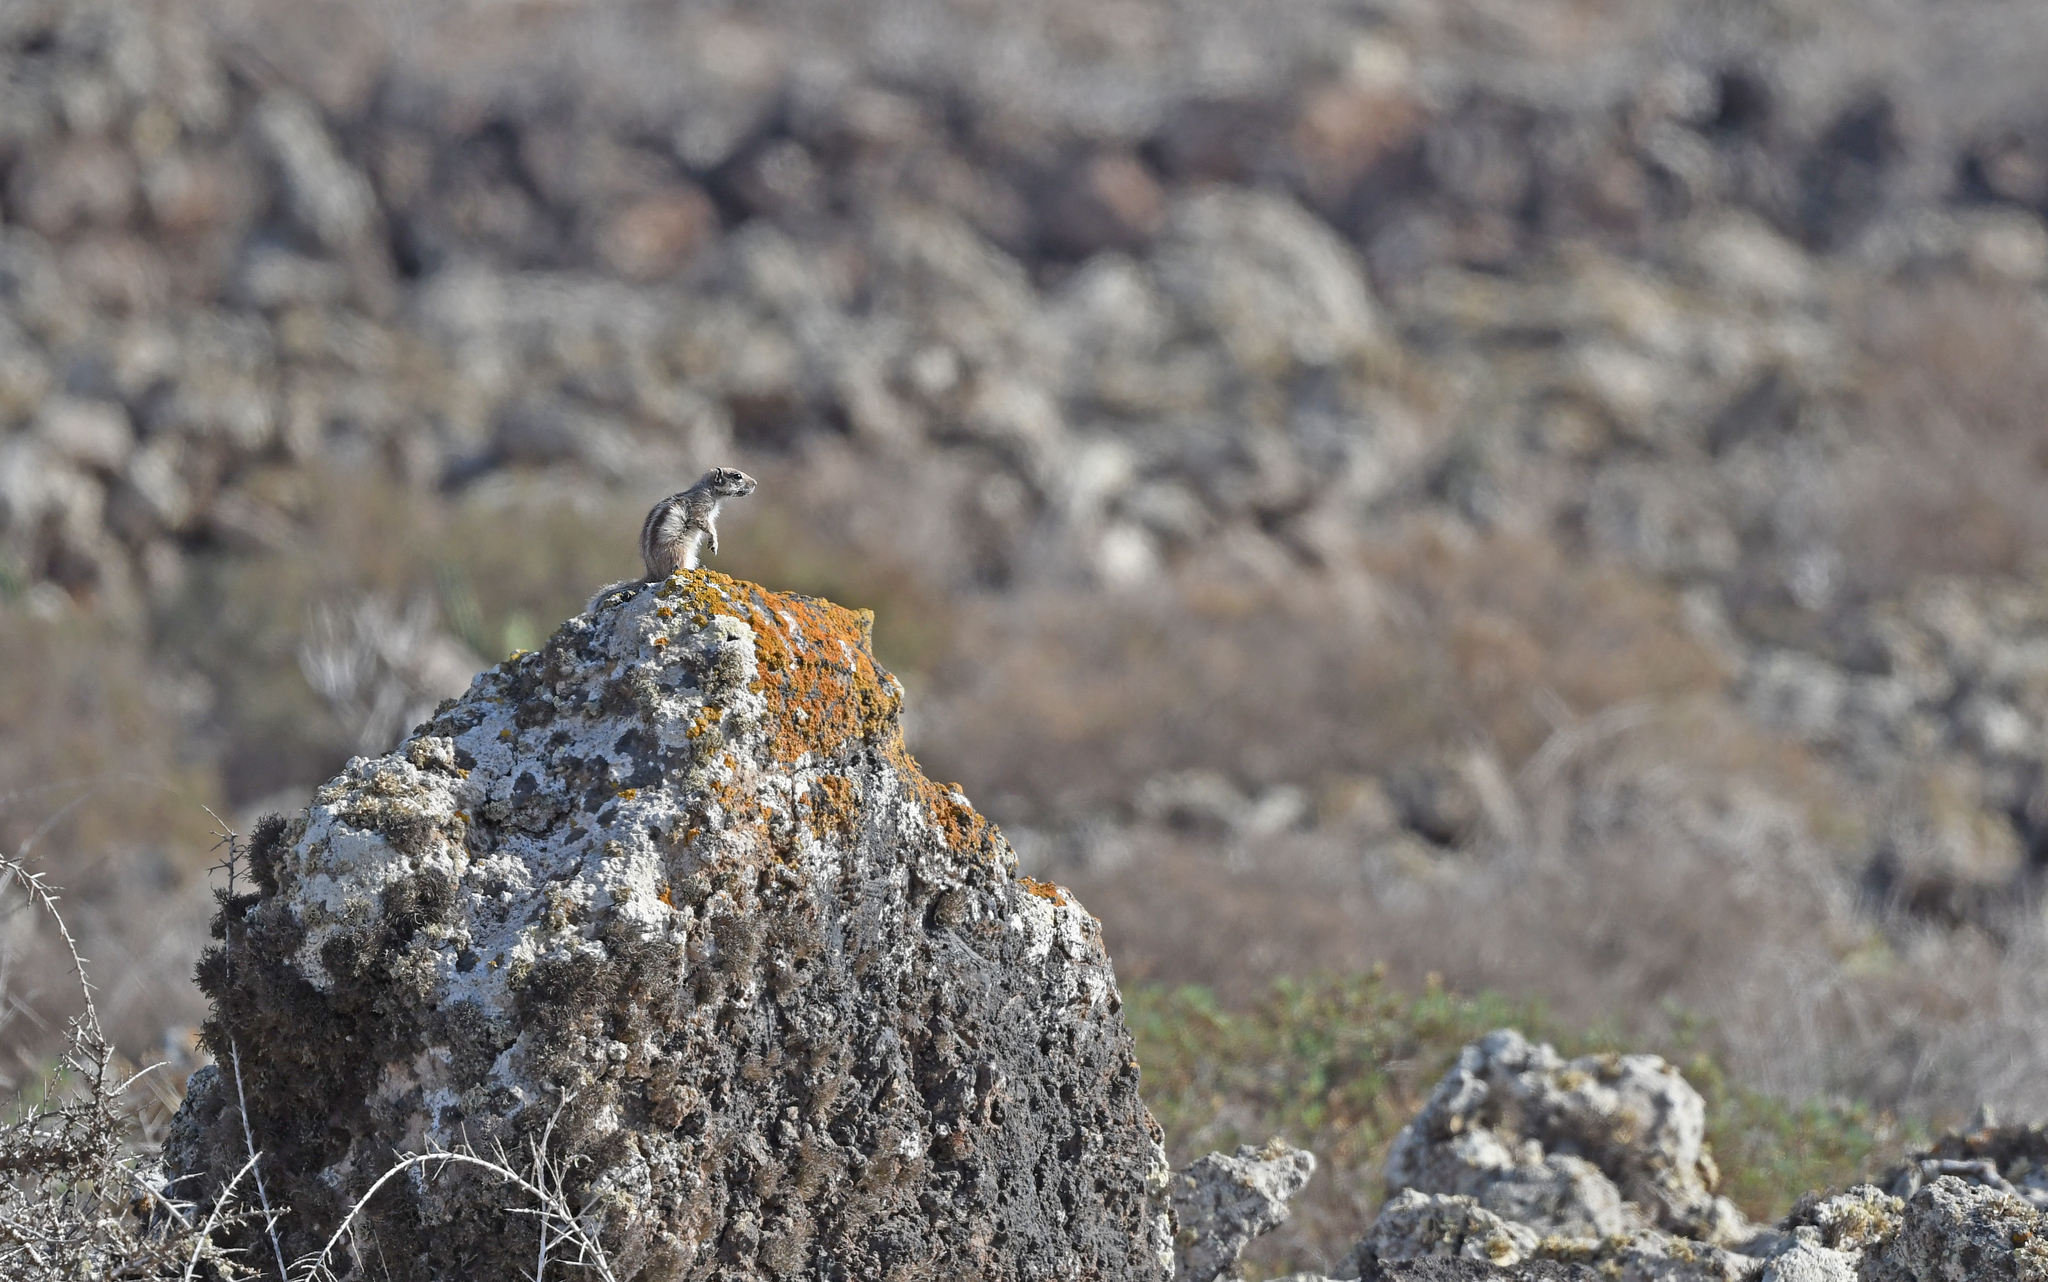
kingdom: Animalia
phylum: Chordata
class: Mammalia
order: Rodentia
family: Sciuridae
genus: Atlantoxerus
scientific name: Atlantoxerus getulus
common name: Barbary ground squirrel
